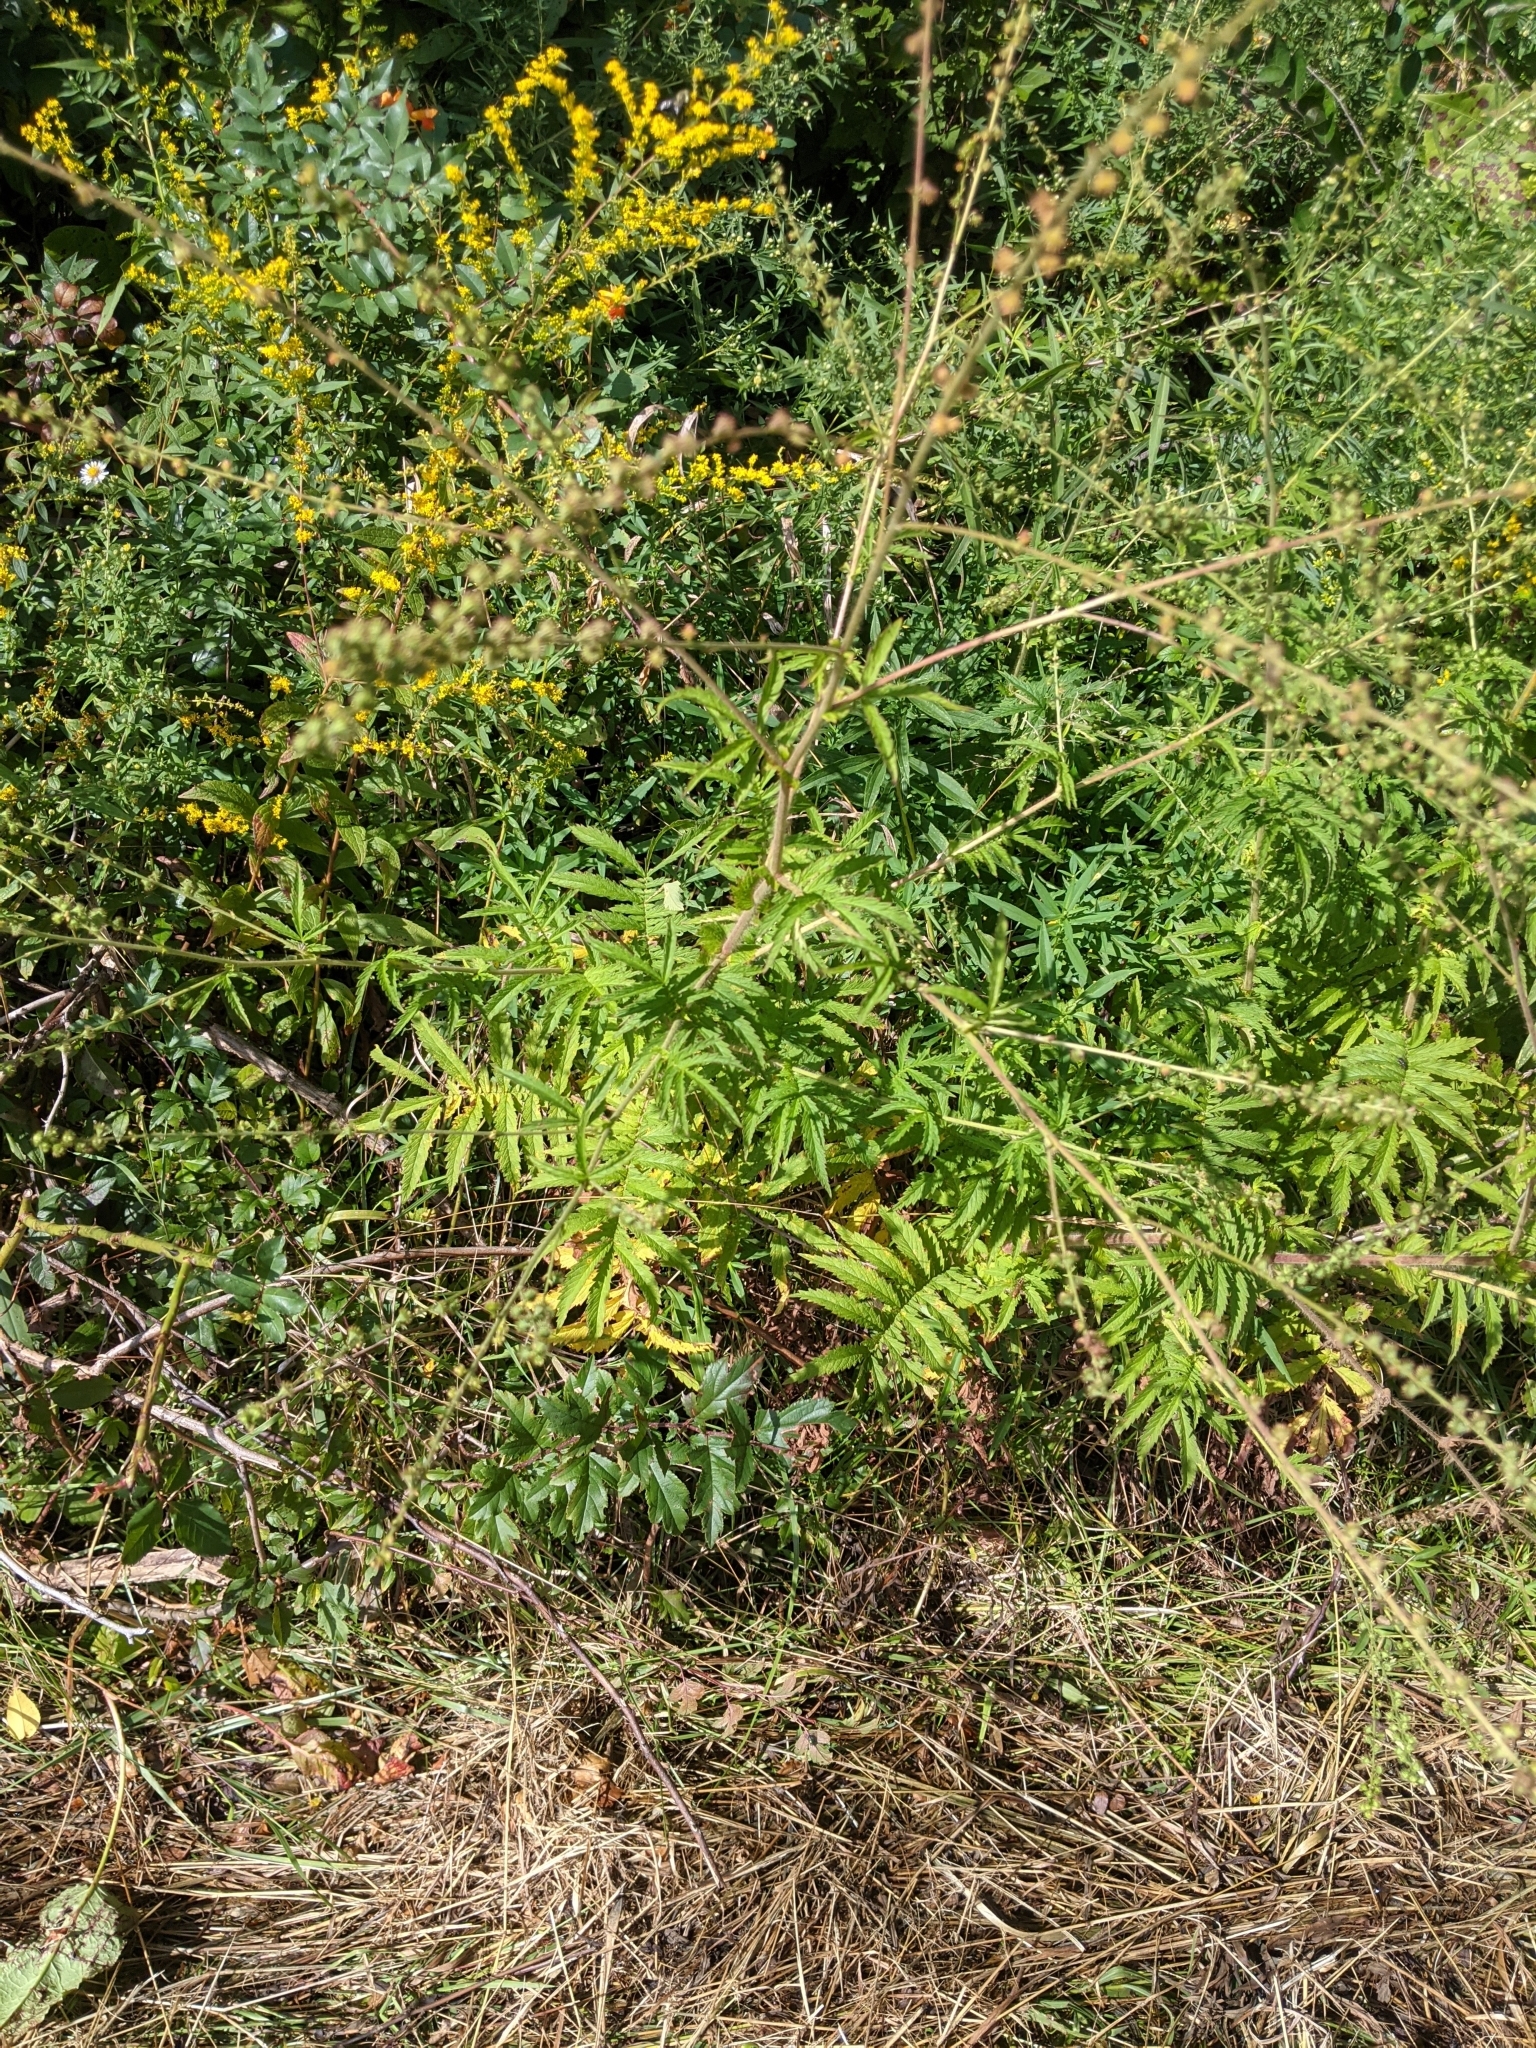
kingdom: Plantae
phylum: Tracheophyta
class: Magnoliopsida
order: Rosales
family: Rosaceae
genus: Agrimonia
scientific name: Agrimonia parviflora
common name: Harvest-lice
